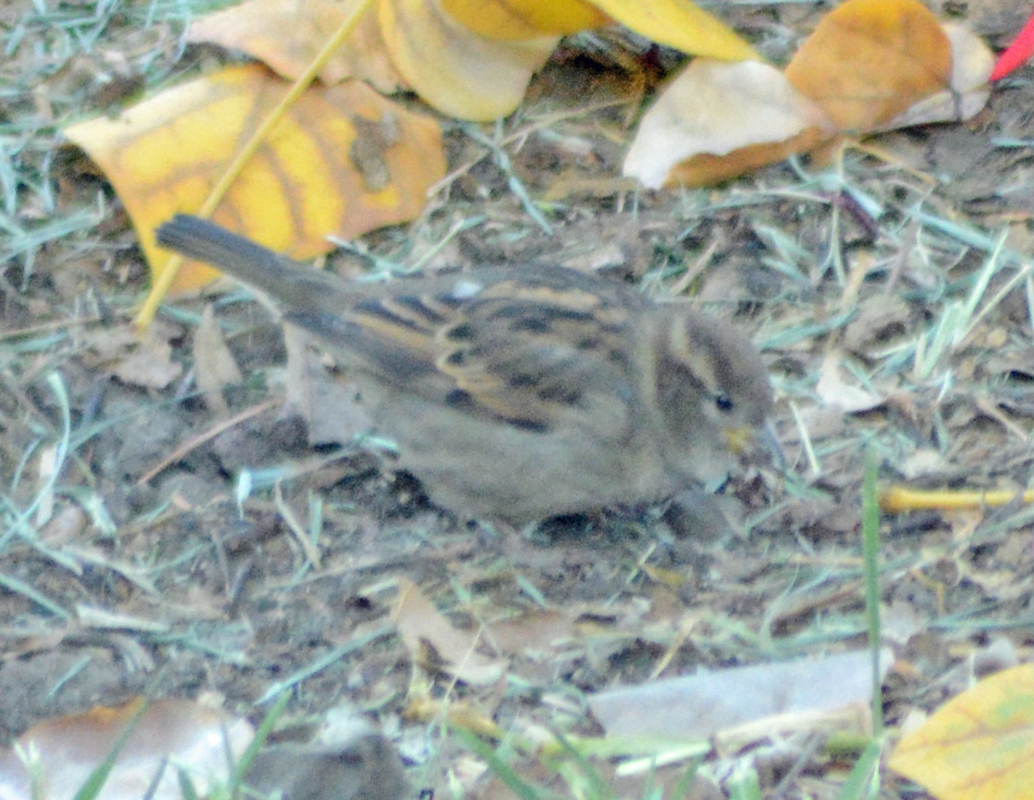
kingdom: Animalia
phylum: Chordata
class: Aves
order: Passeriformes
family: Passeridae
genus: Passer
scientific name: Passer domesticus
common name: House sparrow
